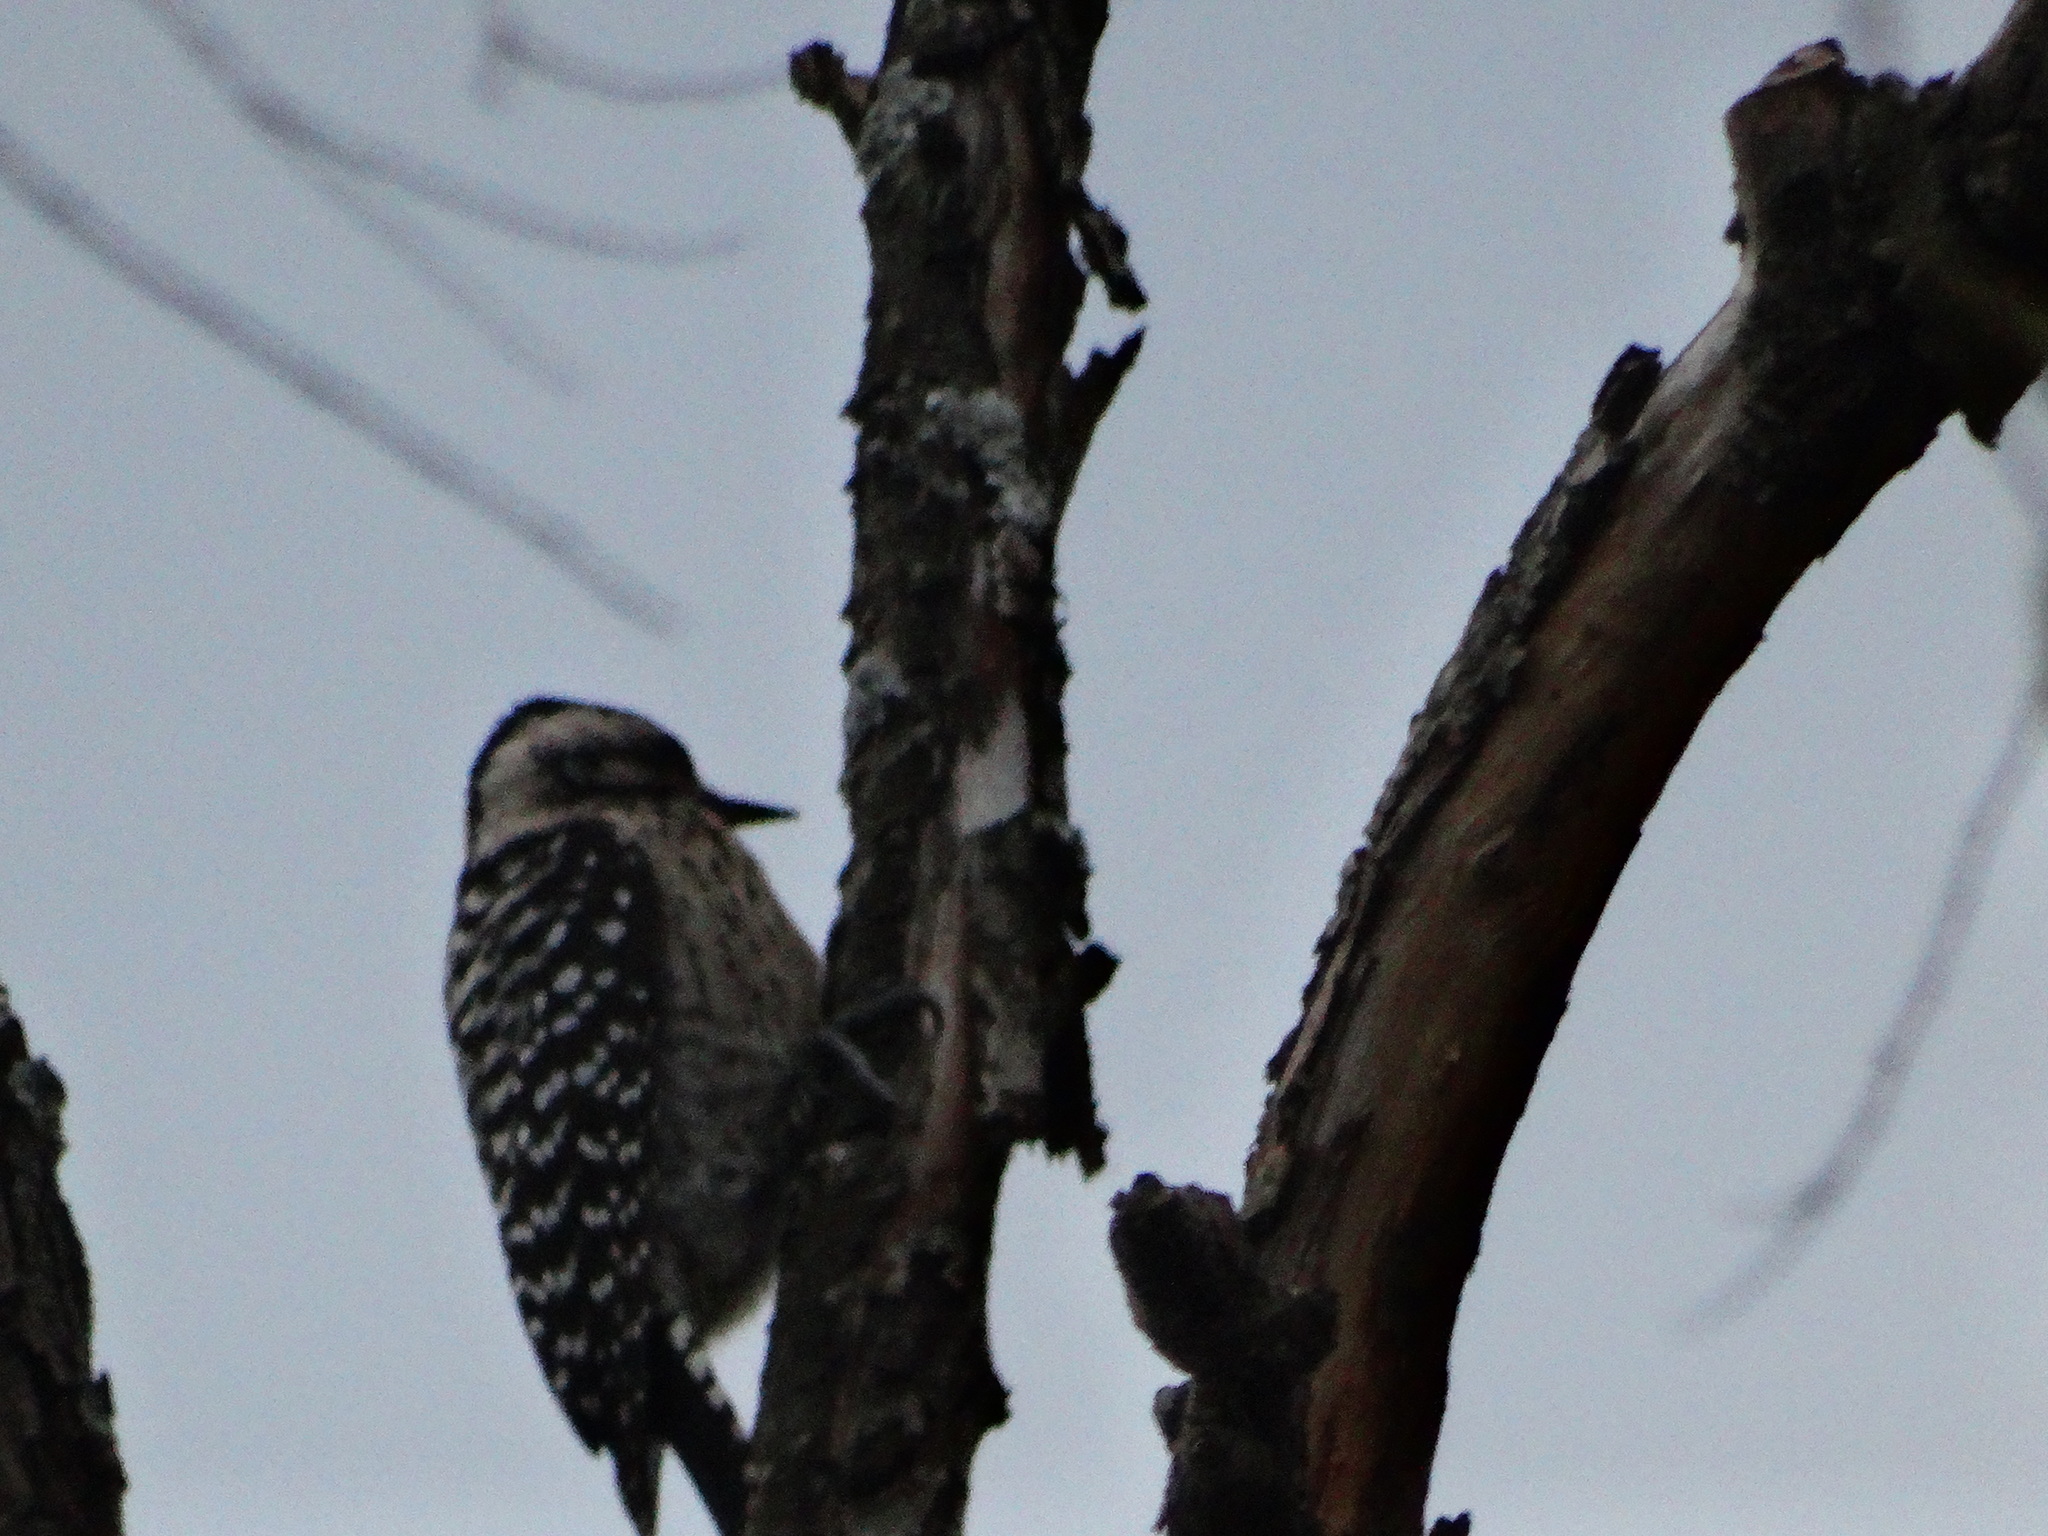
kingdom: Animalia
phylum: Chordata
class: Aves
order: Piciformes
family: Picidae
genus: Dryobates
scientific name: Dryobates scalaris
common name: Ladder-backed woodpecker
